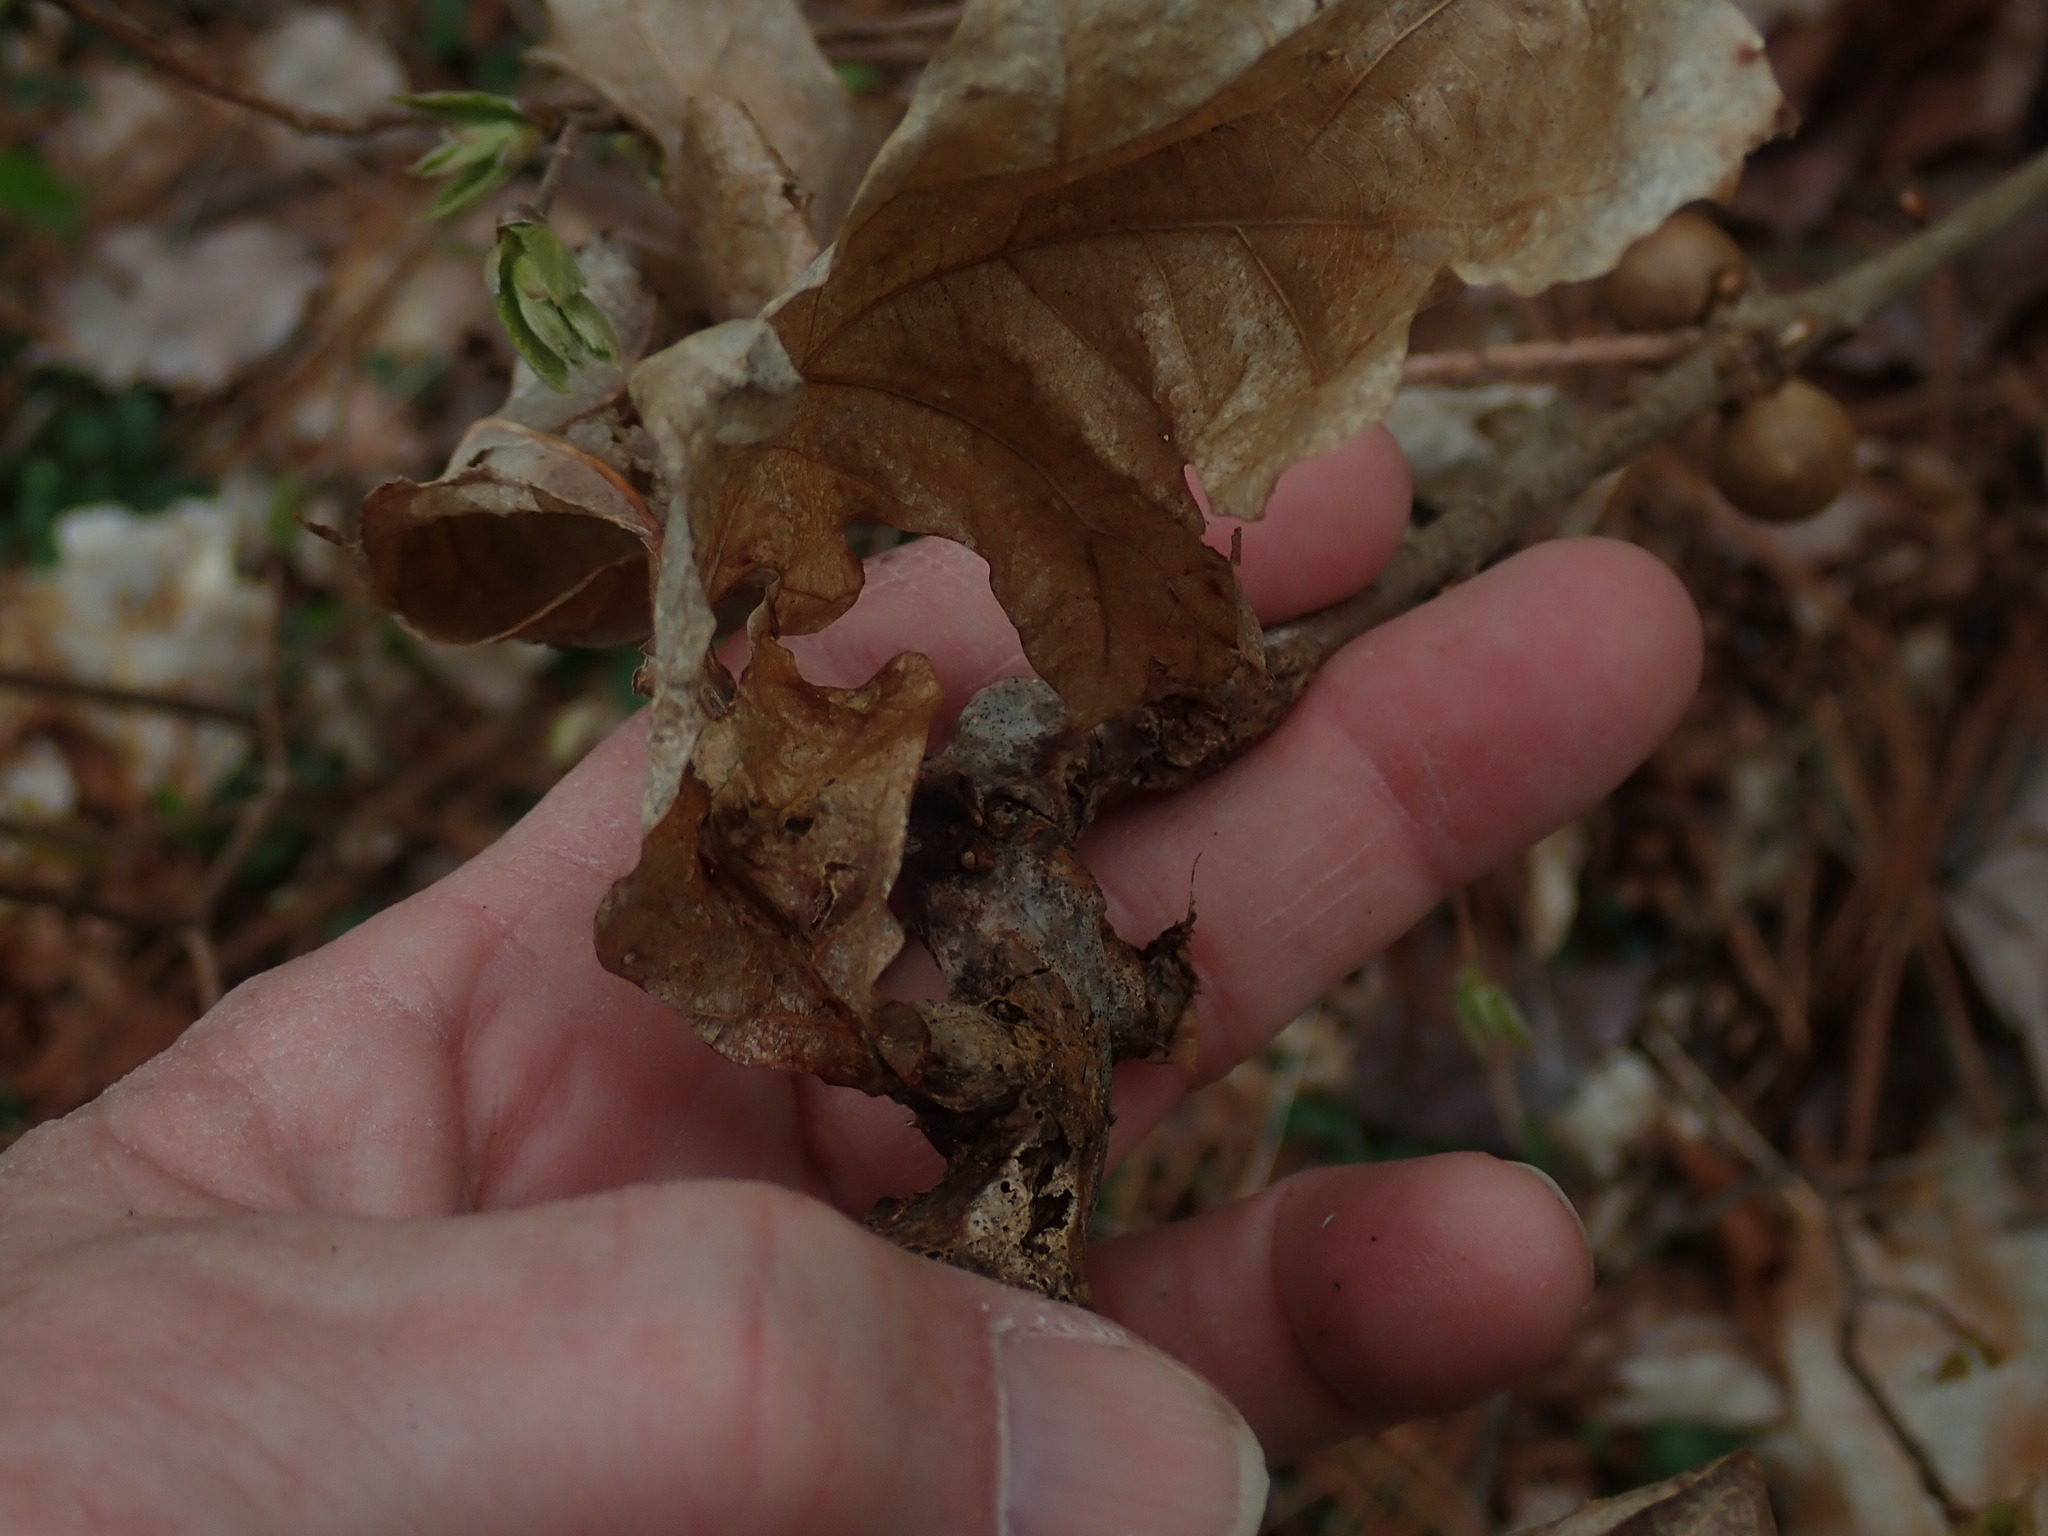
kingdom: Animalia
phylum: Arthropoda
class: Insecta
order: Hymenoptera
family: Cynipidae
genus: Neuroterus
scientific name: Neuroterus quercusbaccarum
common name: Common spangle gall
